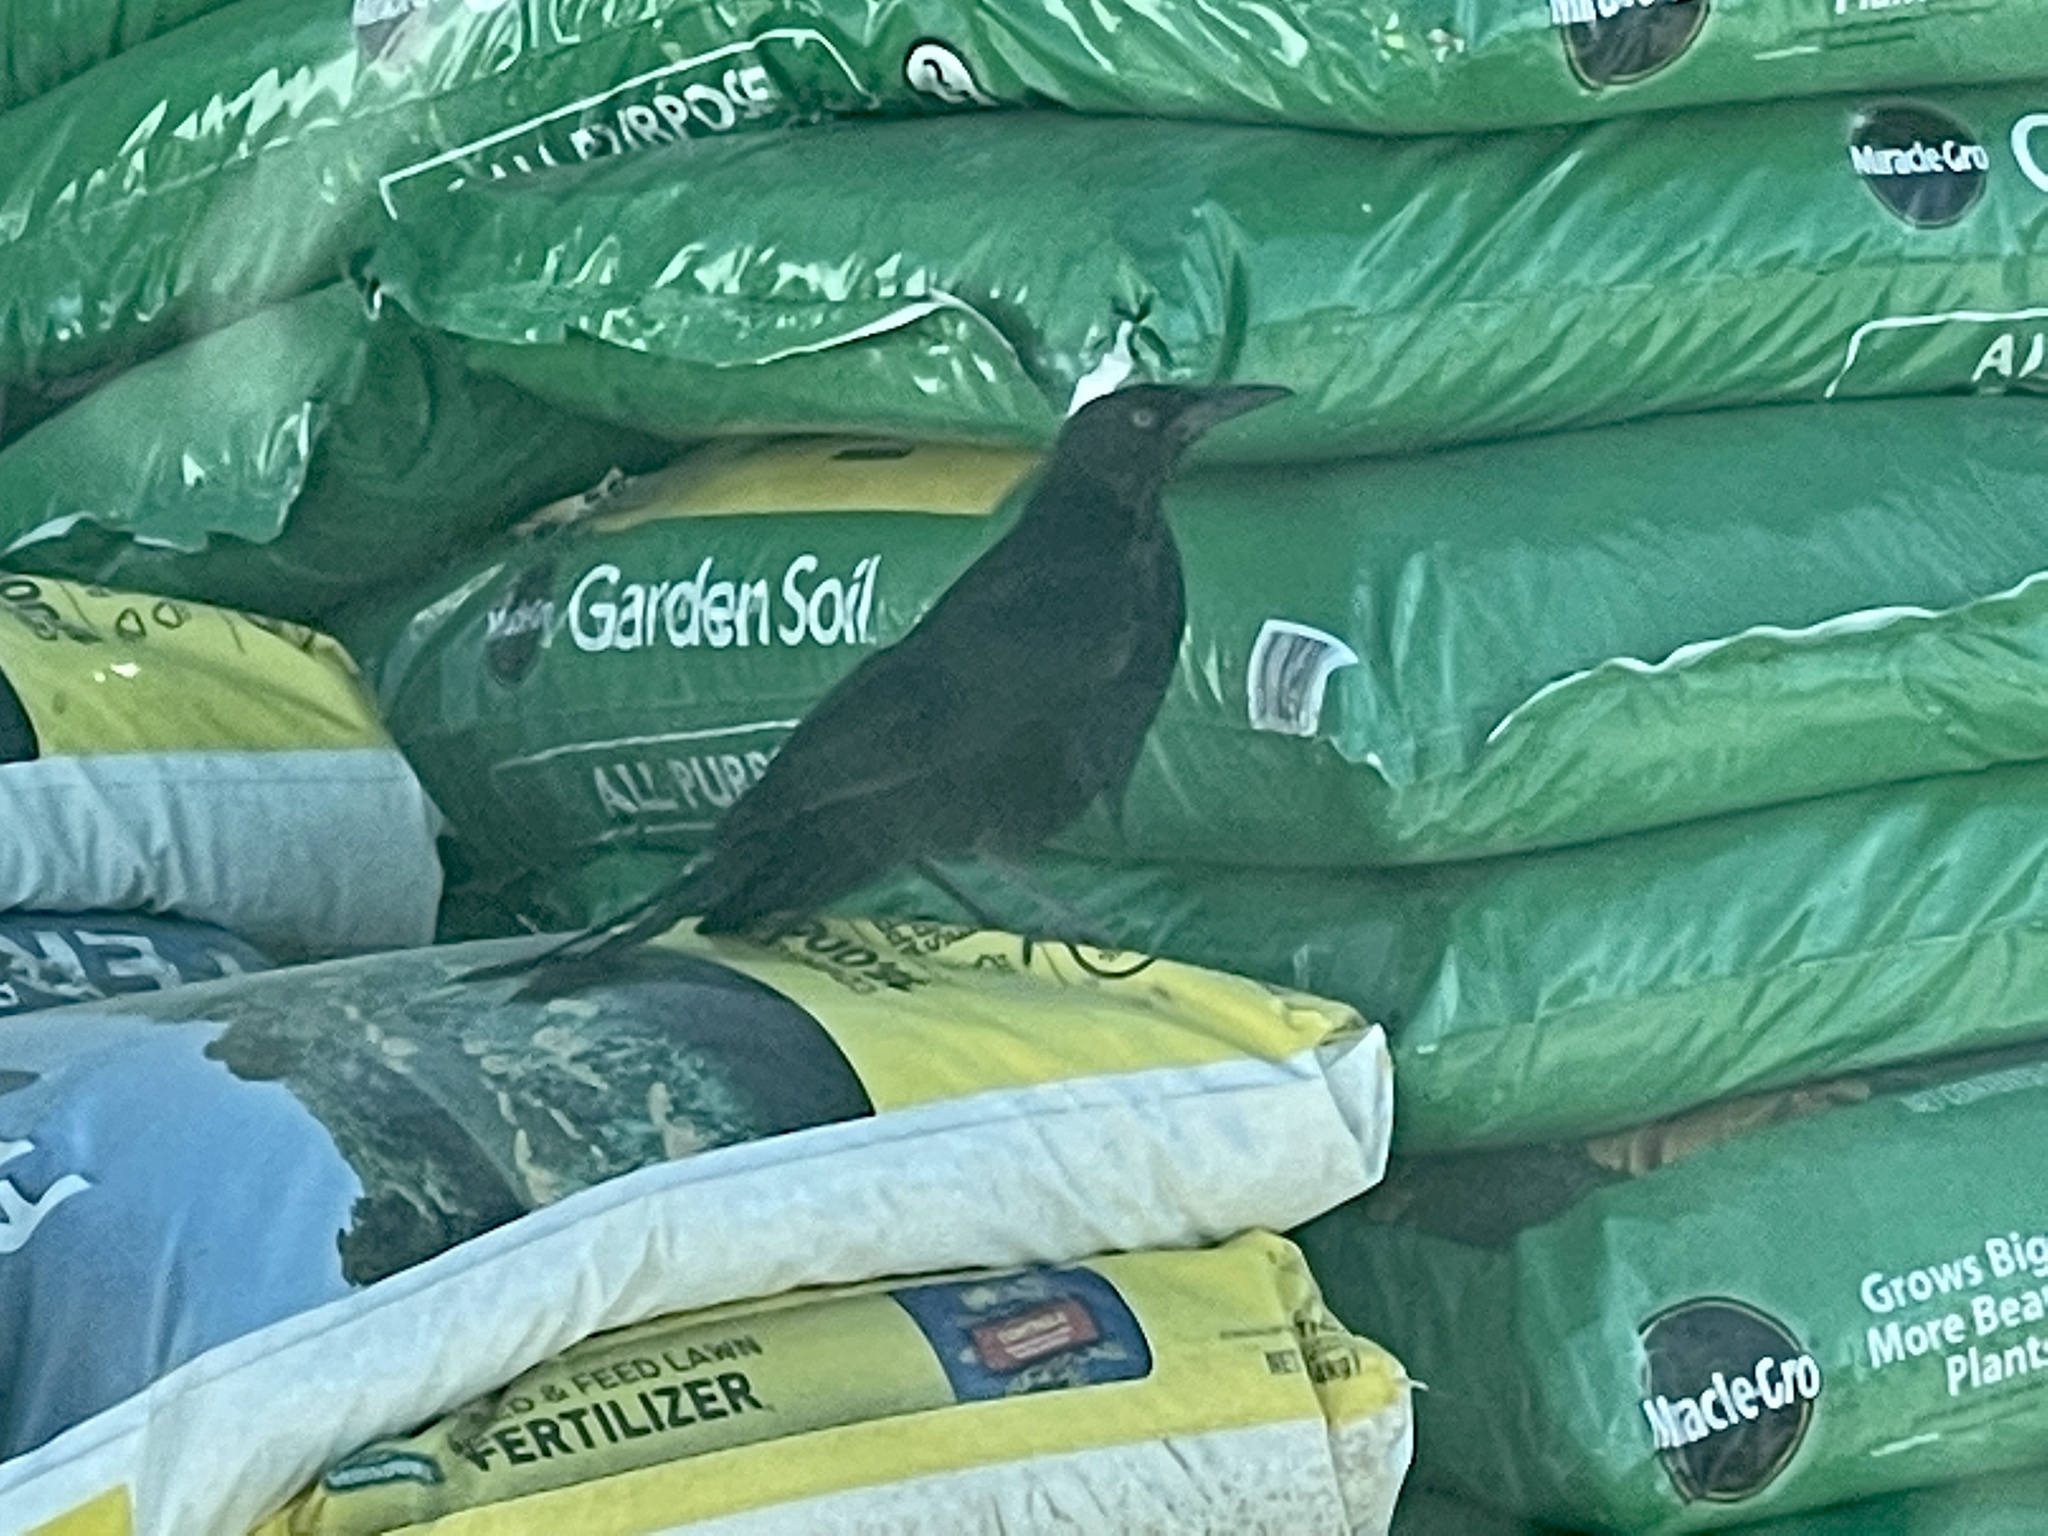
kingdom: Animalia
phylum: Chordata
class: Aves
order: Passeriformes
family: Icteridae
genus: Quiscalus
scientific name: Quiscalus mexicanus
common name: Great-tailed grackle
